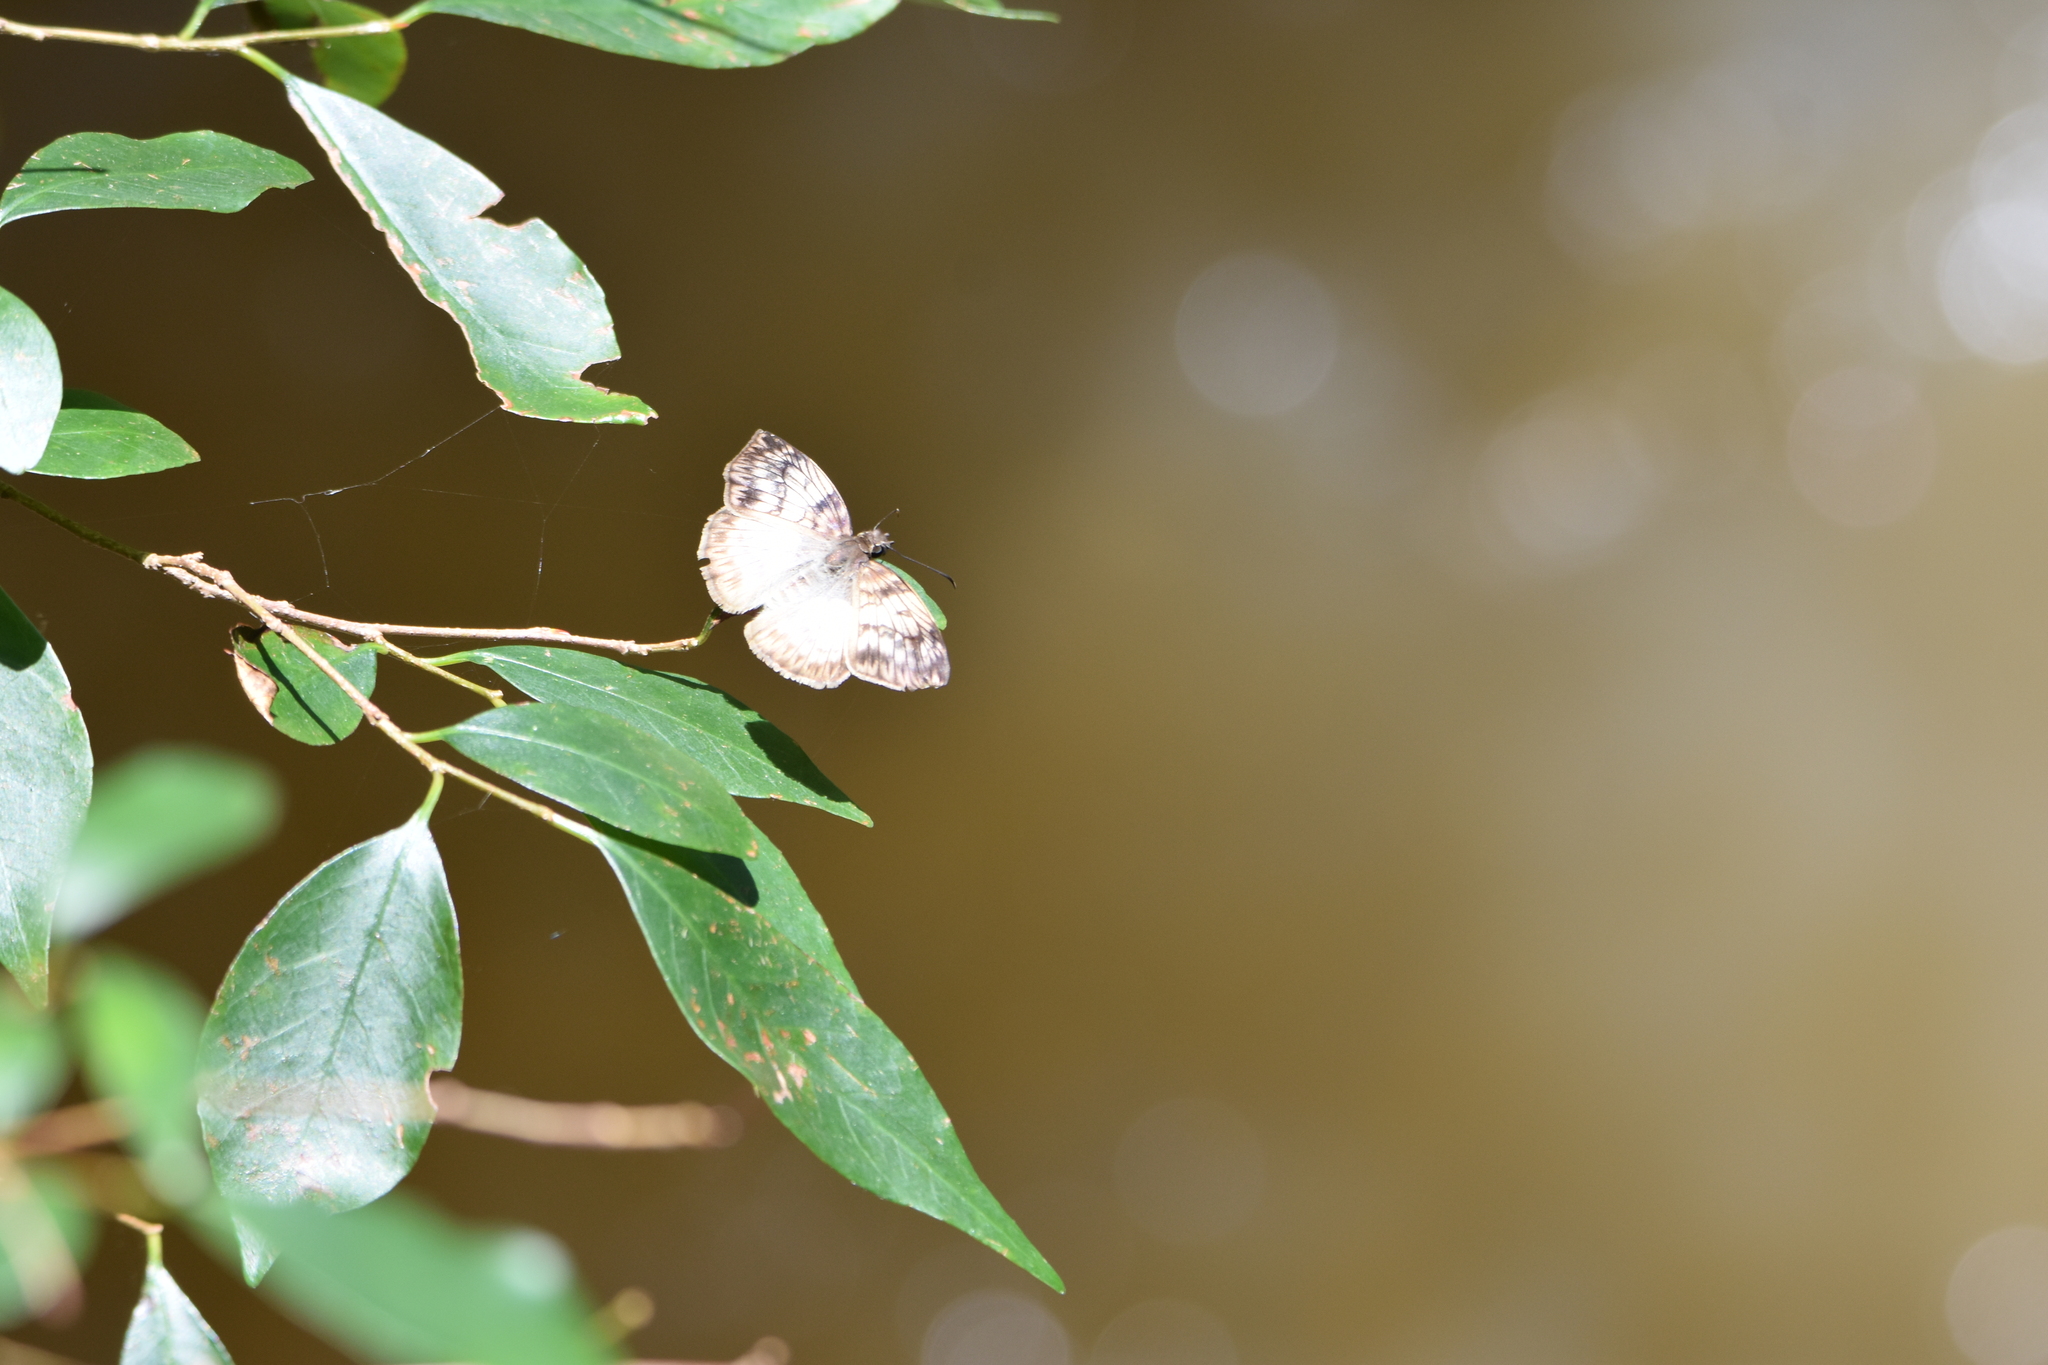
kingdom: Animalia
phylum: Arthropoda
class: Insecta
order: Lepidoptera
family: Hesperiidae
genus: Mylon
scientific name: Mylon maimon
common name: Common mylon
